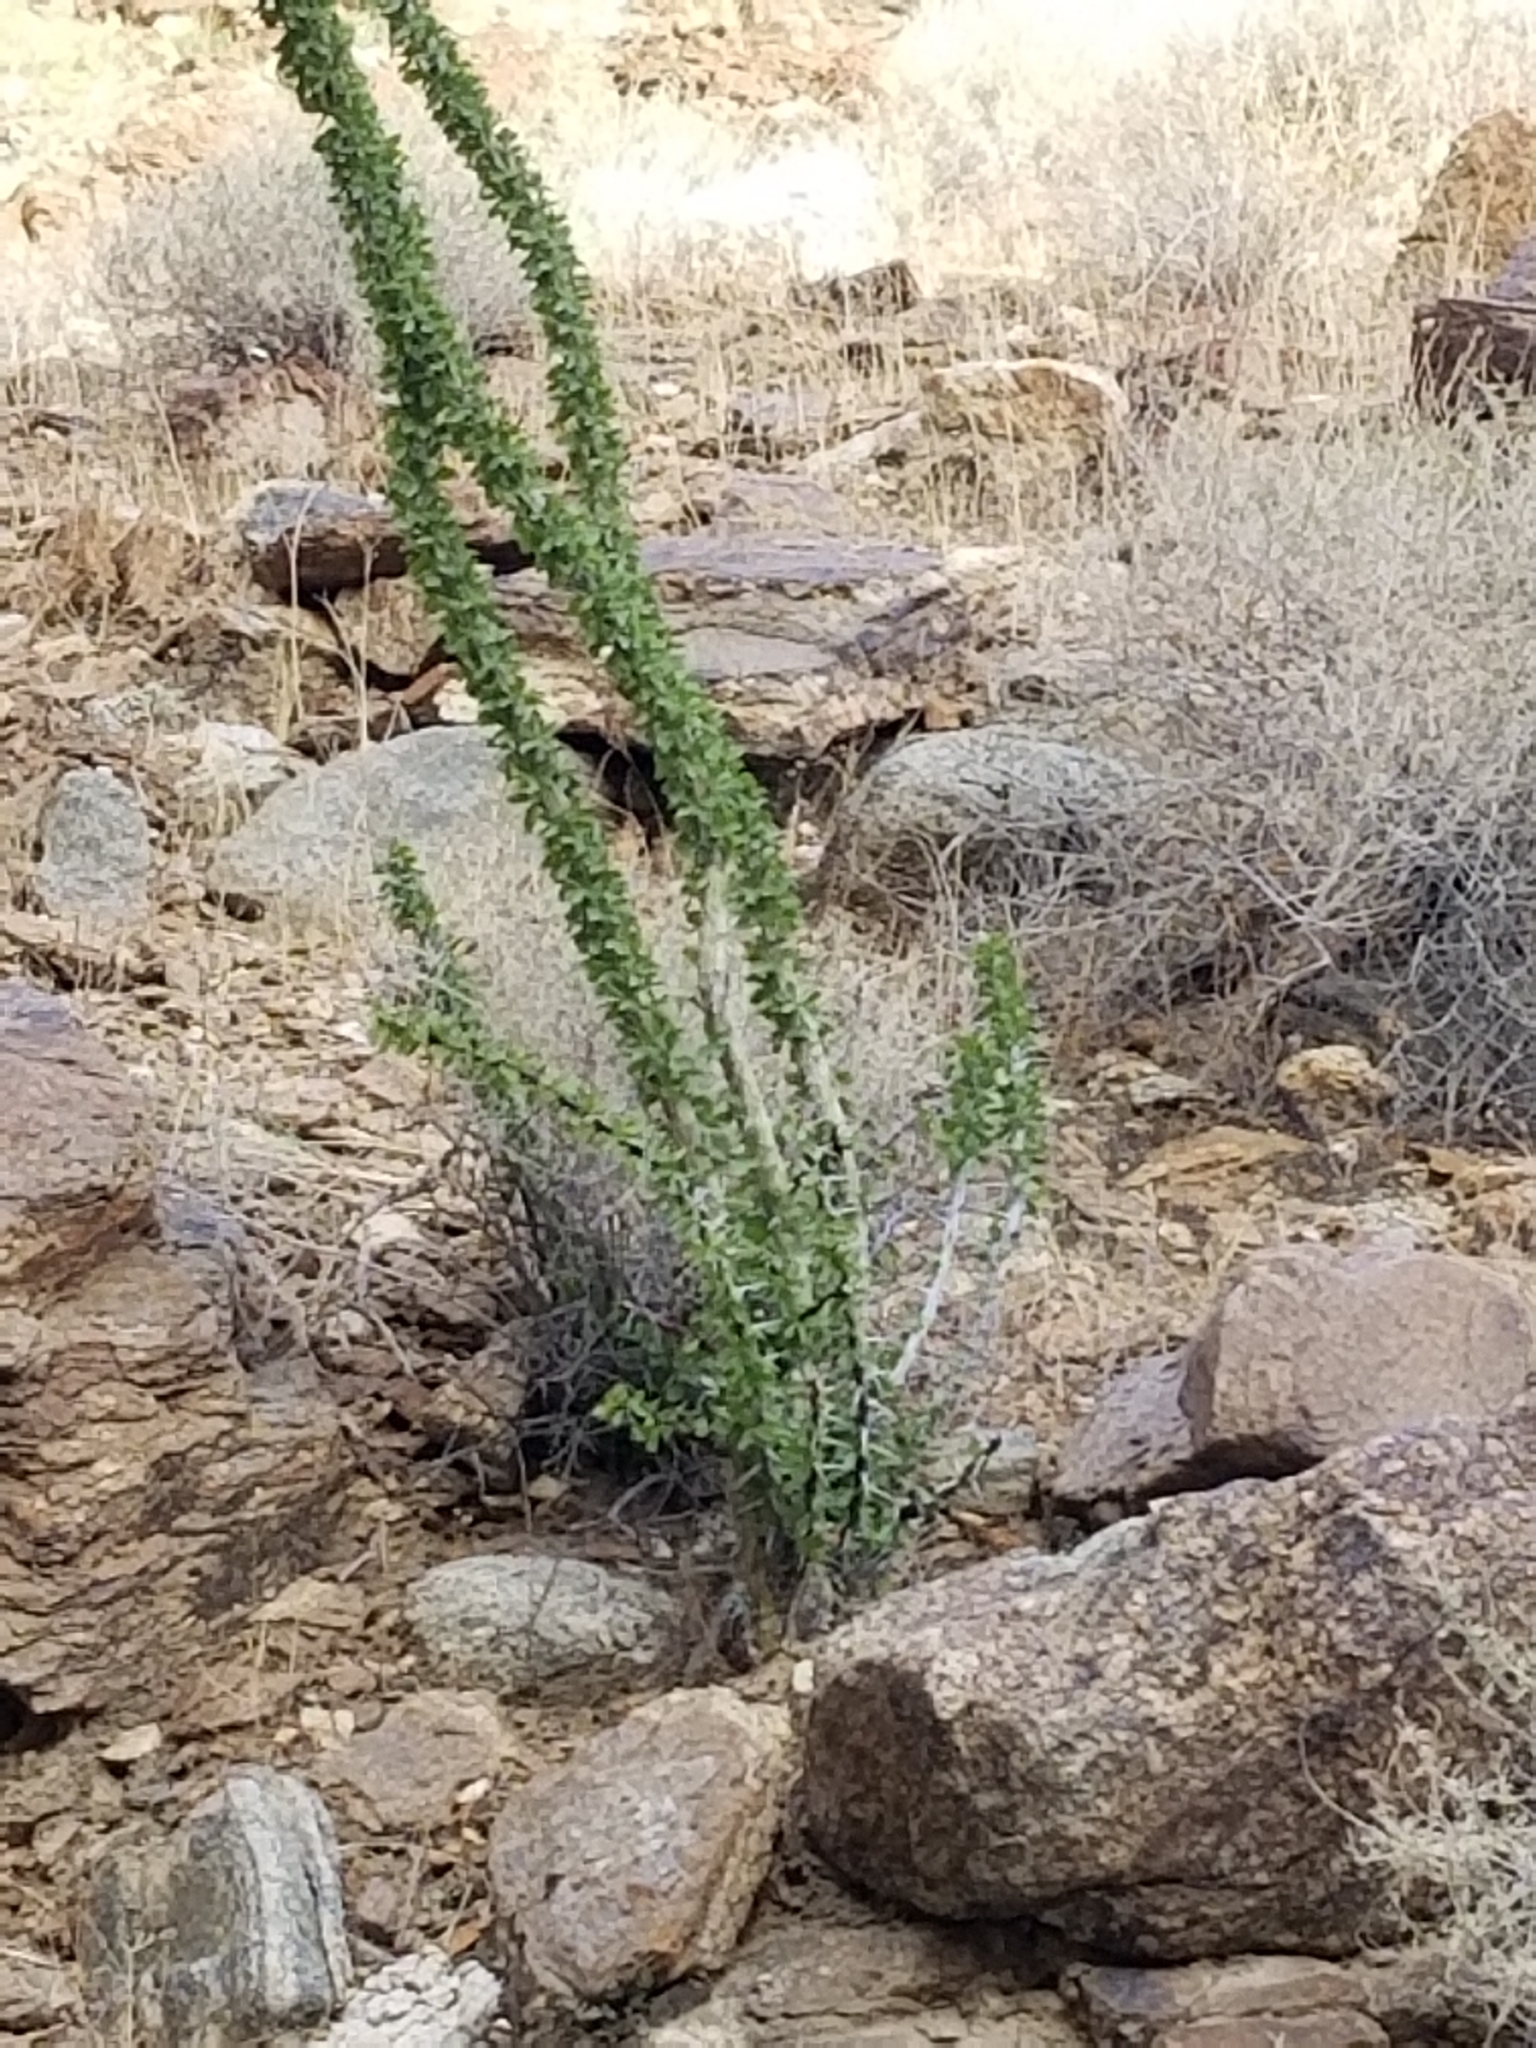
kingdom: Plantae
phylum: Tracheophyta
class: Magnoliopsida
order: Ericales
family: Fouquieriaceae
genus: Fouquieria
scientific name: Fouquieria splendens
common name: Vine-cactus
